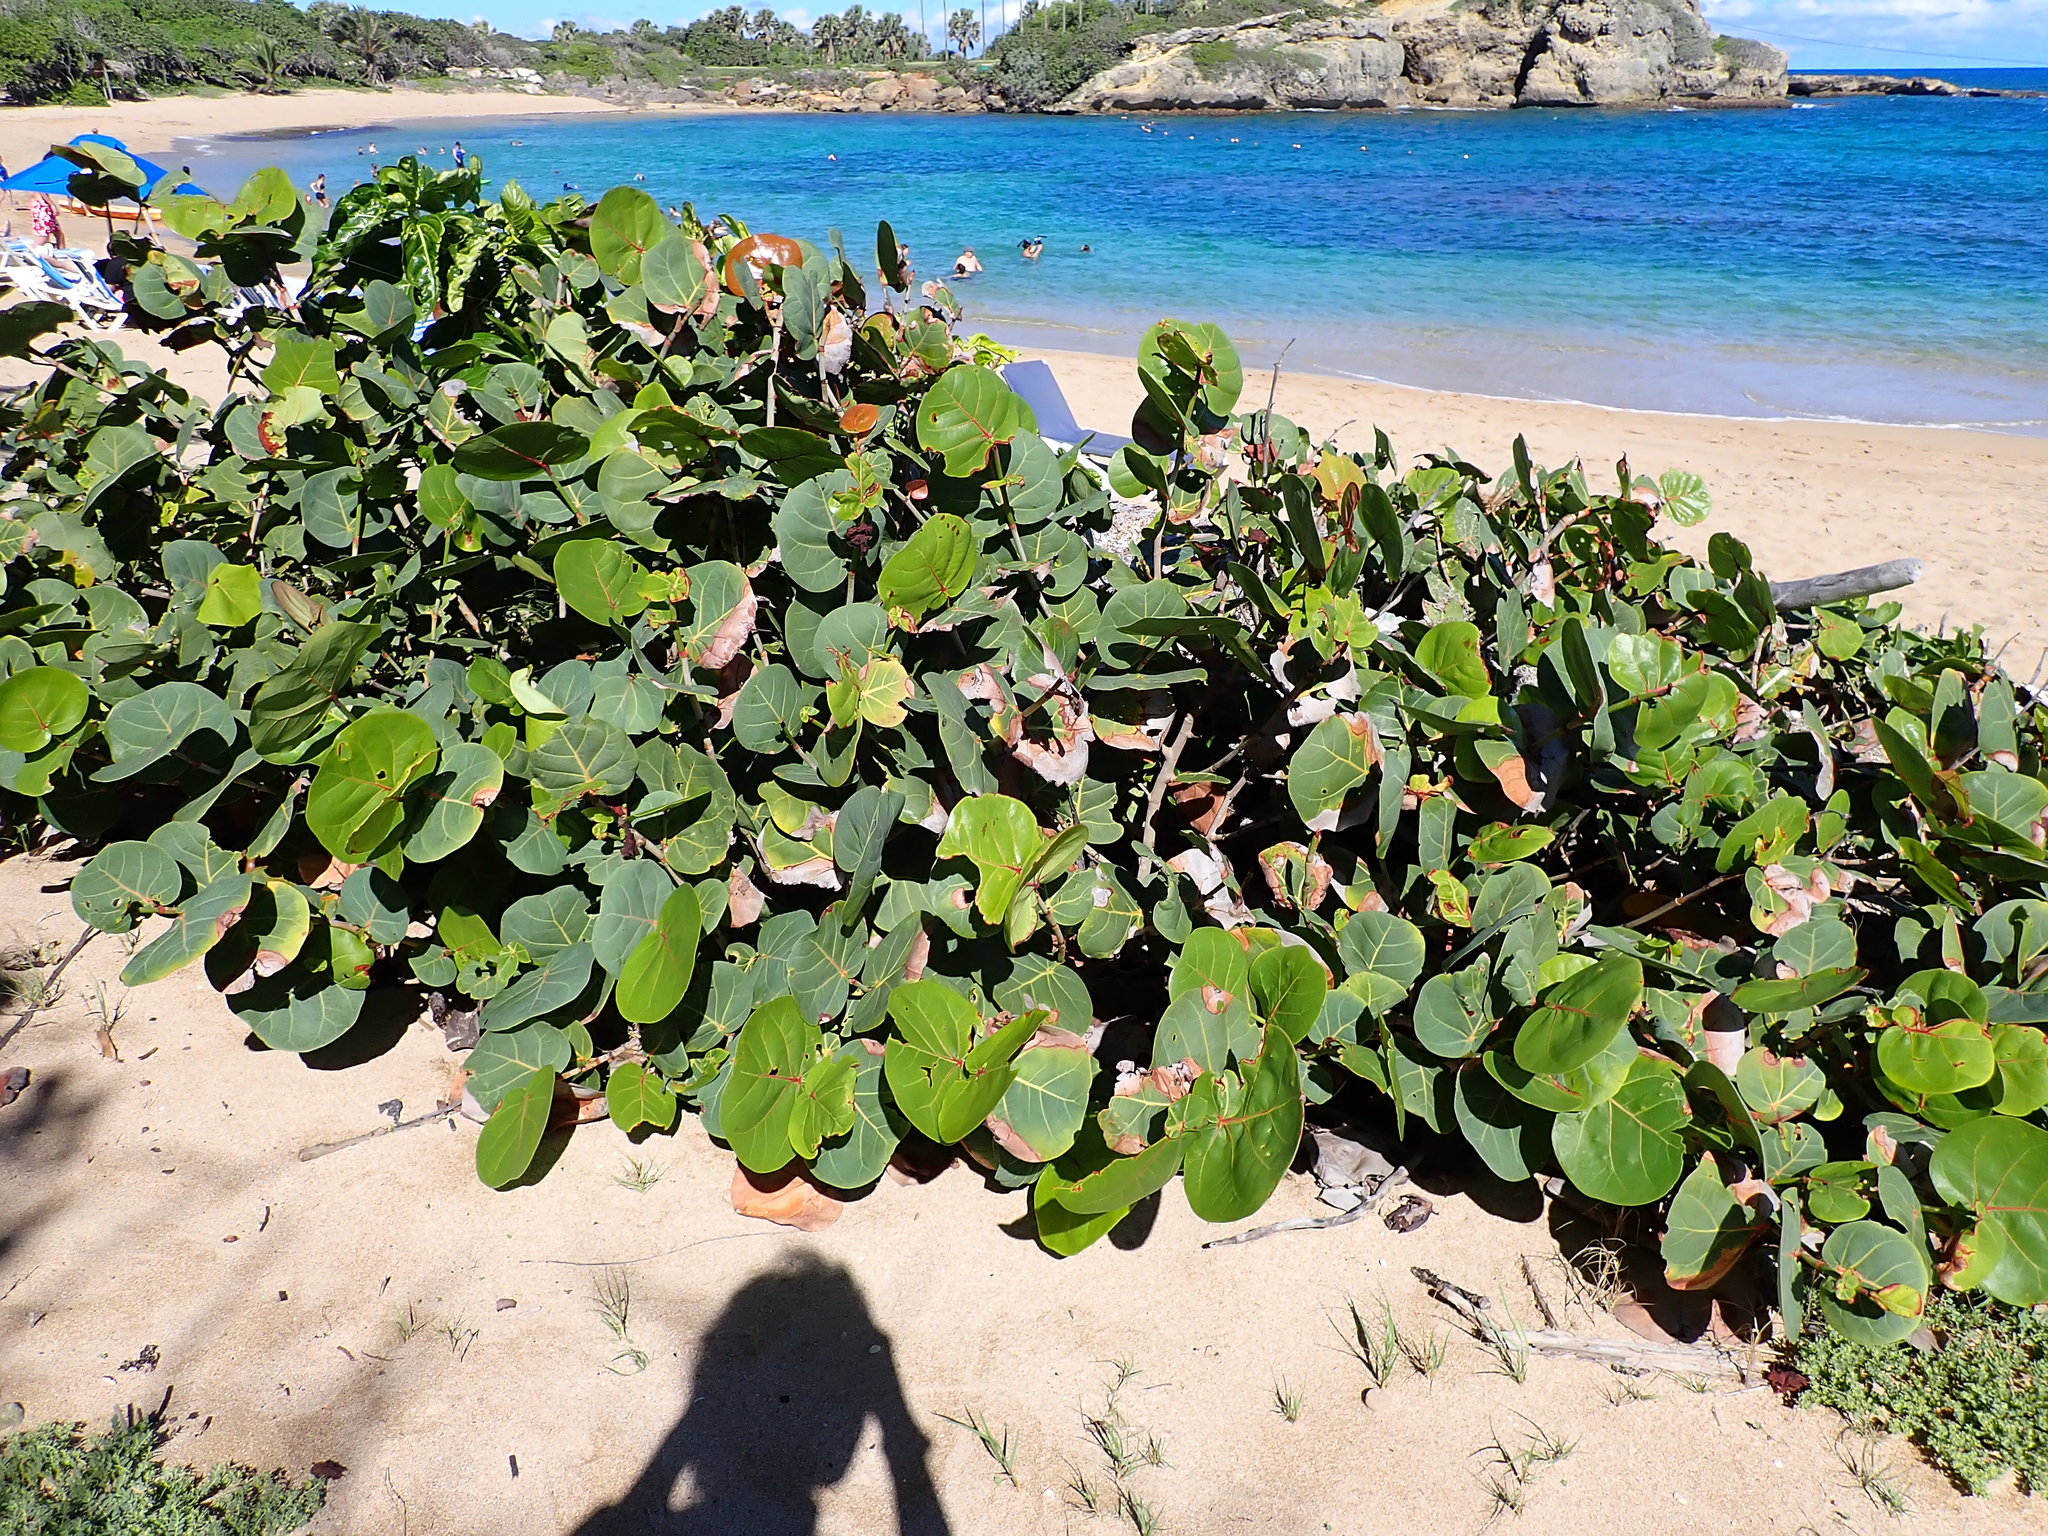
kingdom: Plantae
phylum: Tracheophyta
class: Magnoliopsida
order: Caryophyllales
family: Polygonaceae
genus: Coccoloba
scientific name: Coccoloba uvifera
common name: Seagrape
